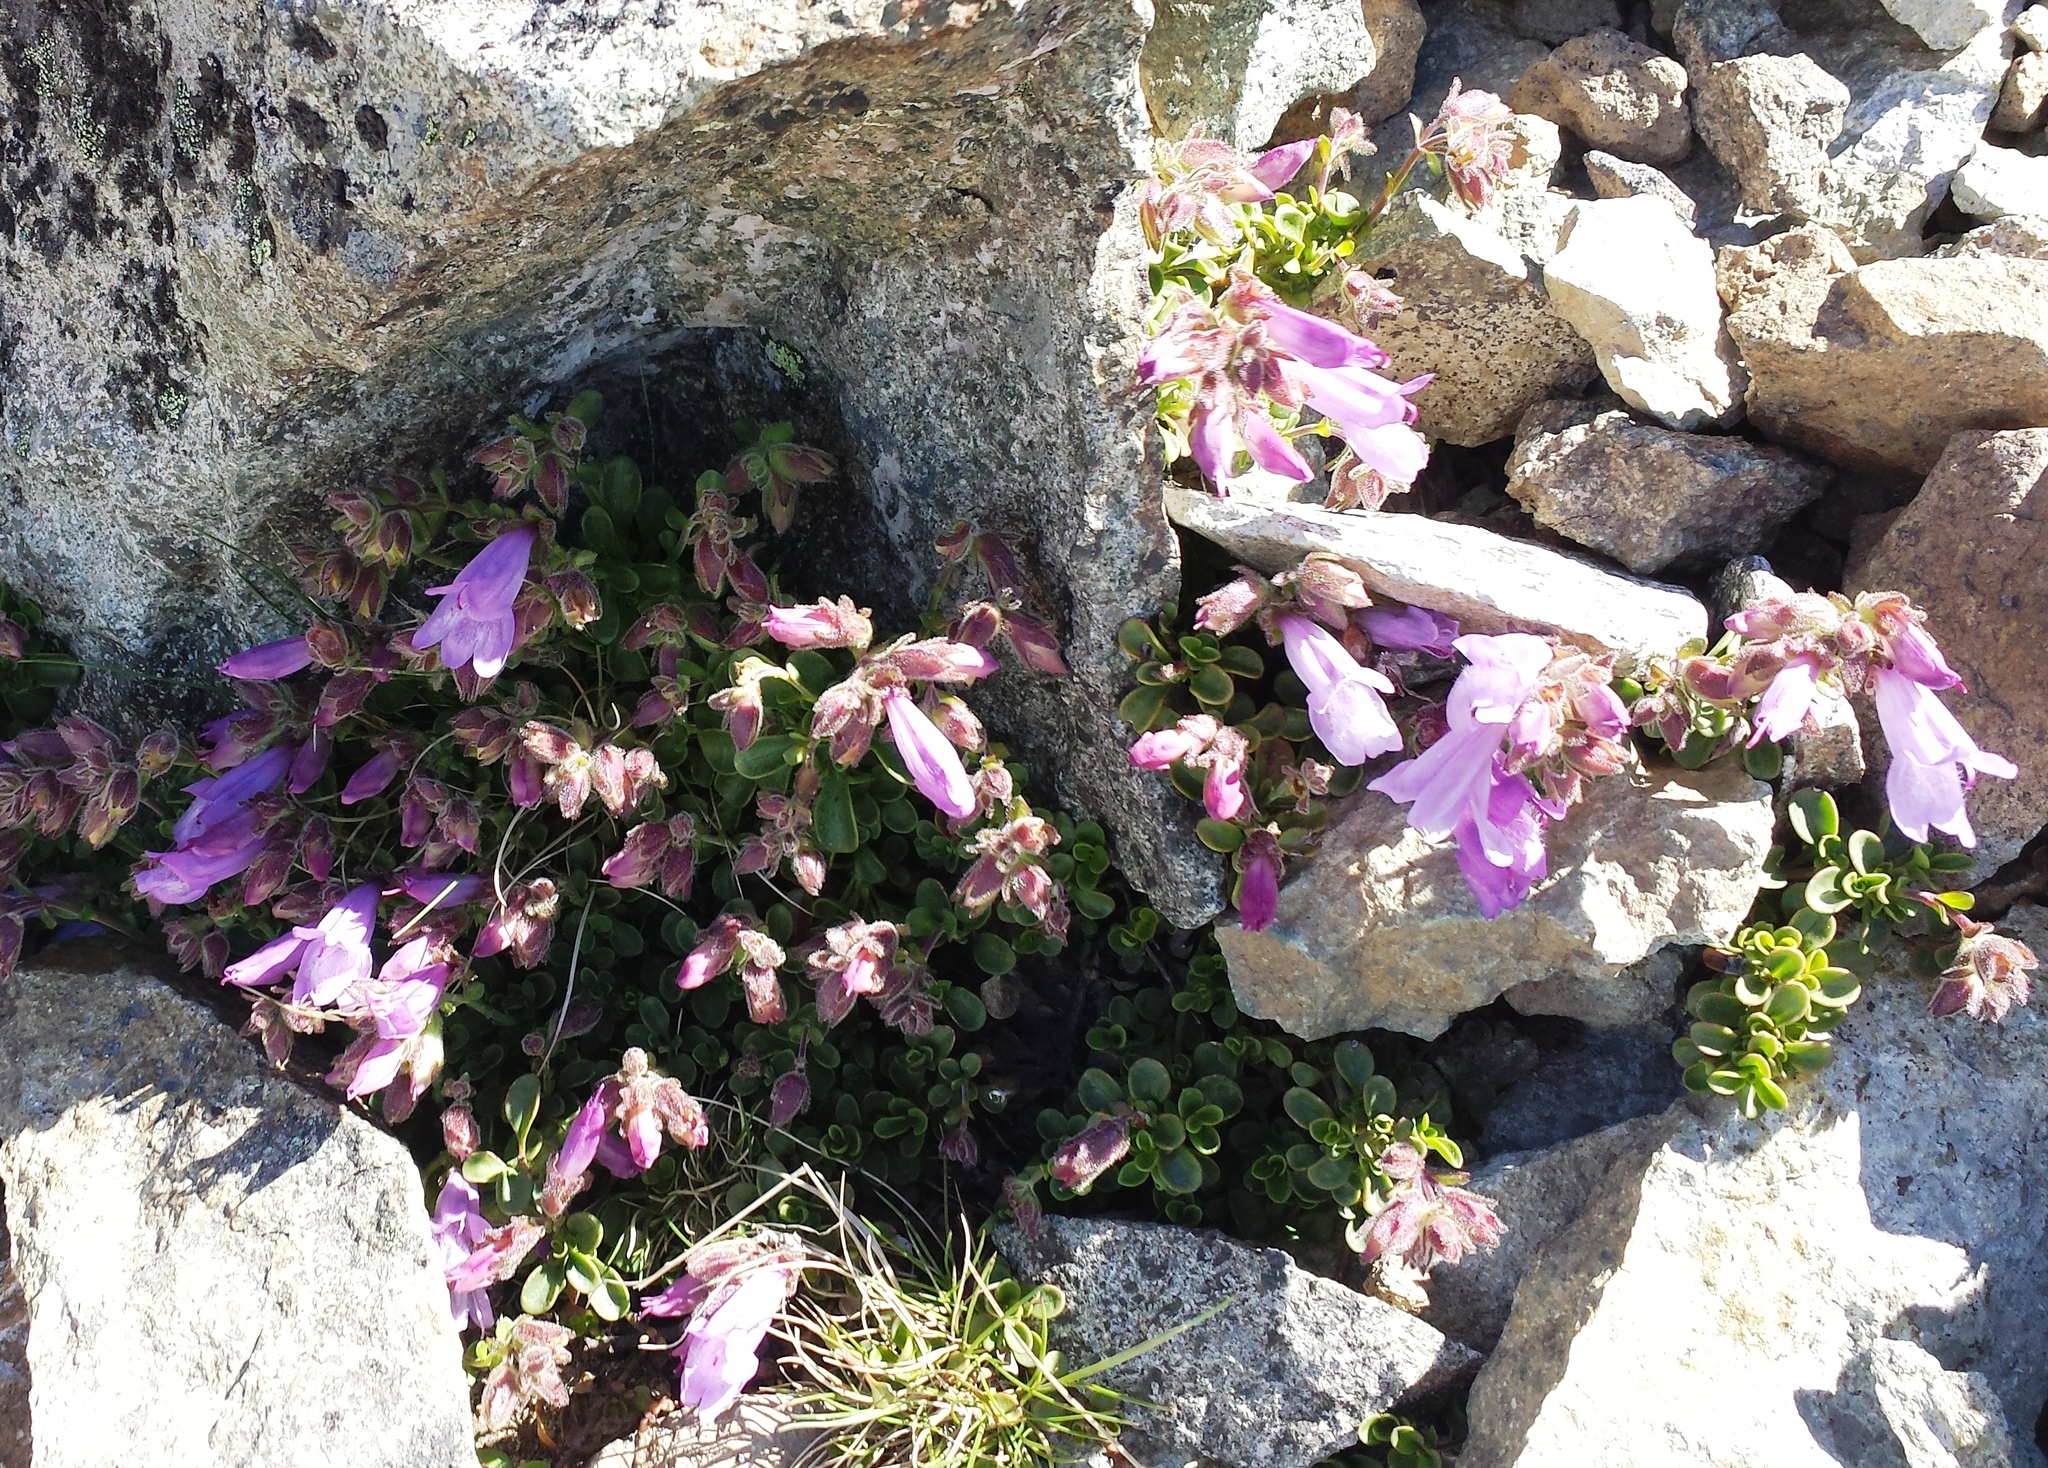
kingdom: Plantae
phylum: Tracheophyta
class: Magnoliopsida
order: Lamiales
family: Plantaginaceae
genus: Penstemon
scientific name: Penstemon davidsonii
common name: Davidson's penstemon
